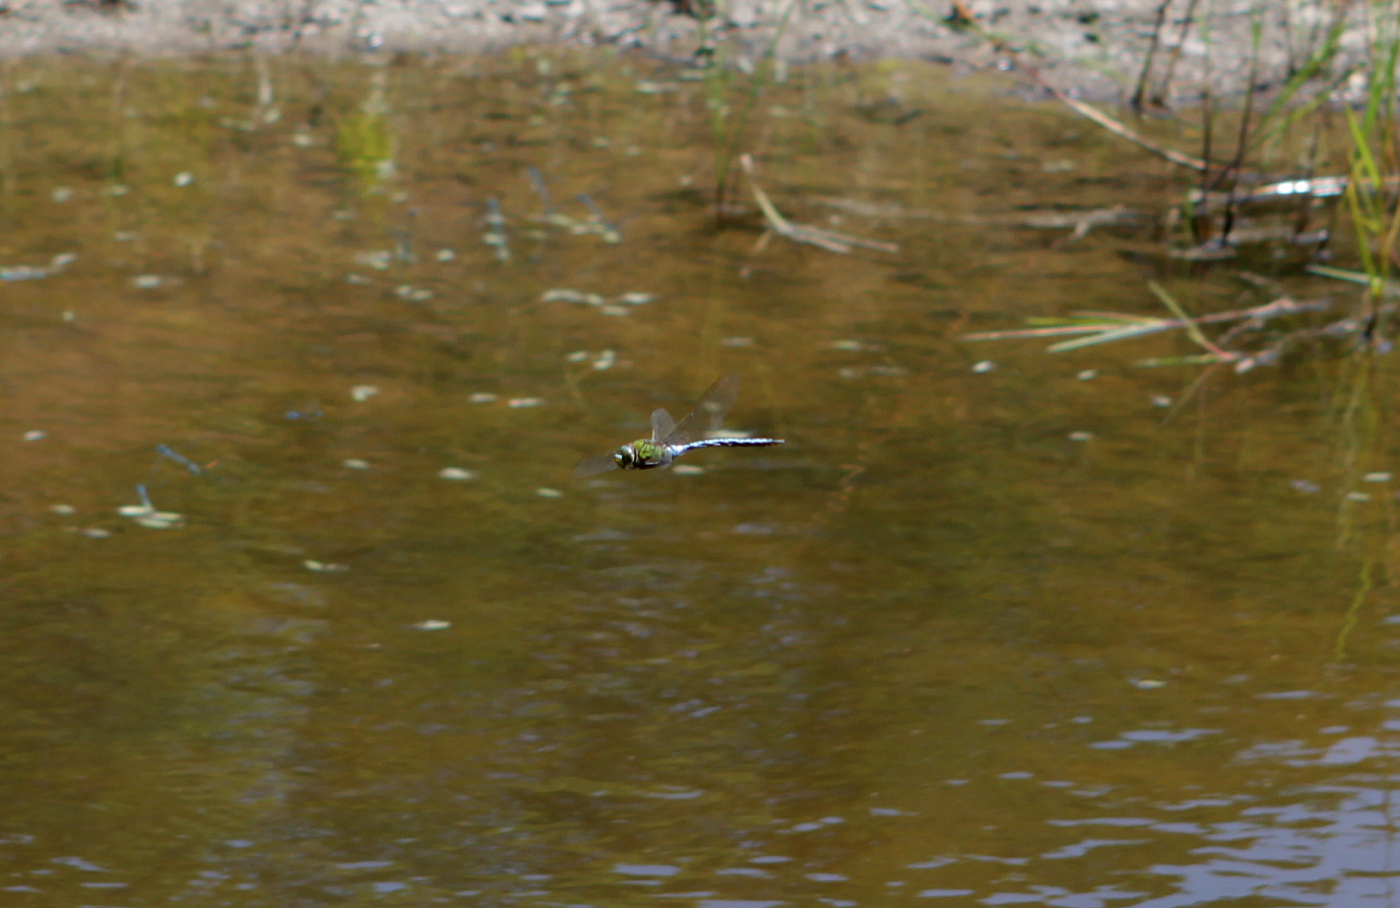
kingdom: Animalia
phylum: Arthropoda
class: Insecta
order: Odonata
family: Aeshnidae
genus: Anax
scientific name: Anax imperator
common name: Emperor dragonfly
